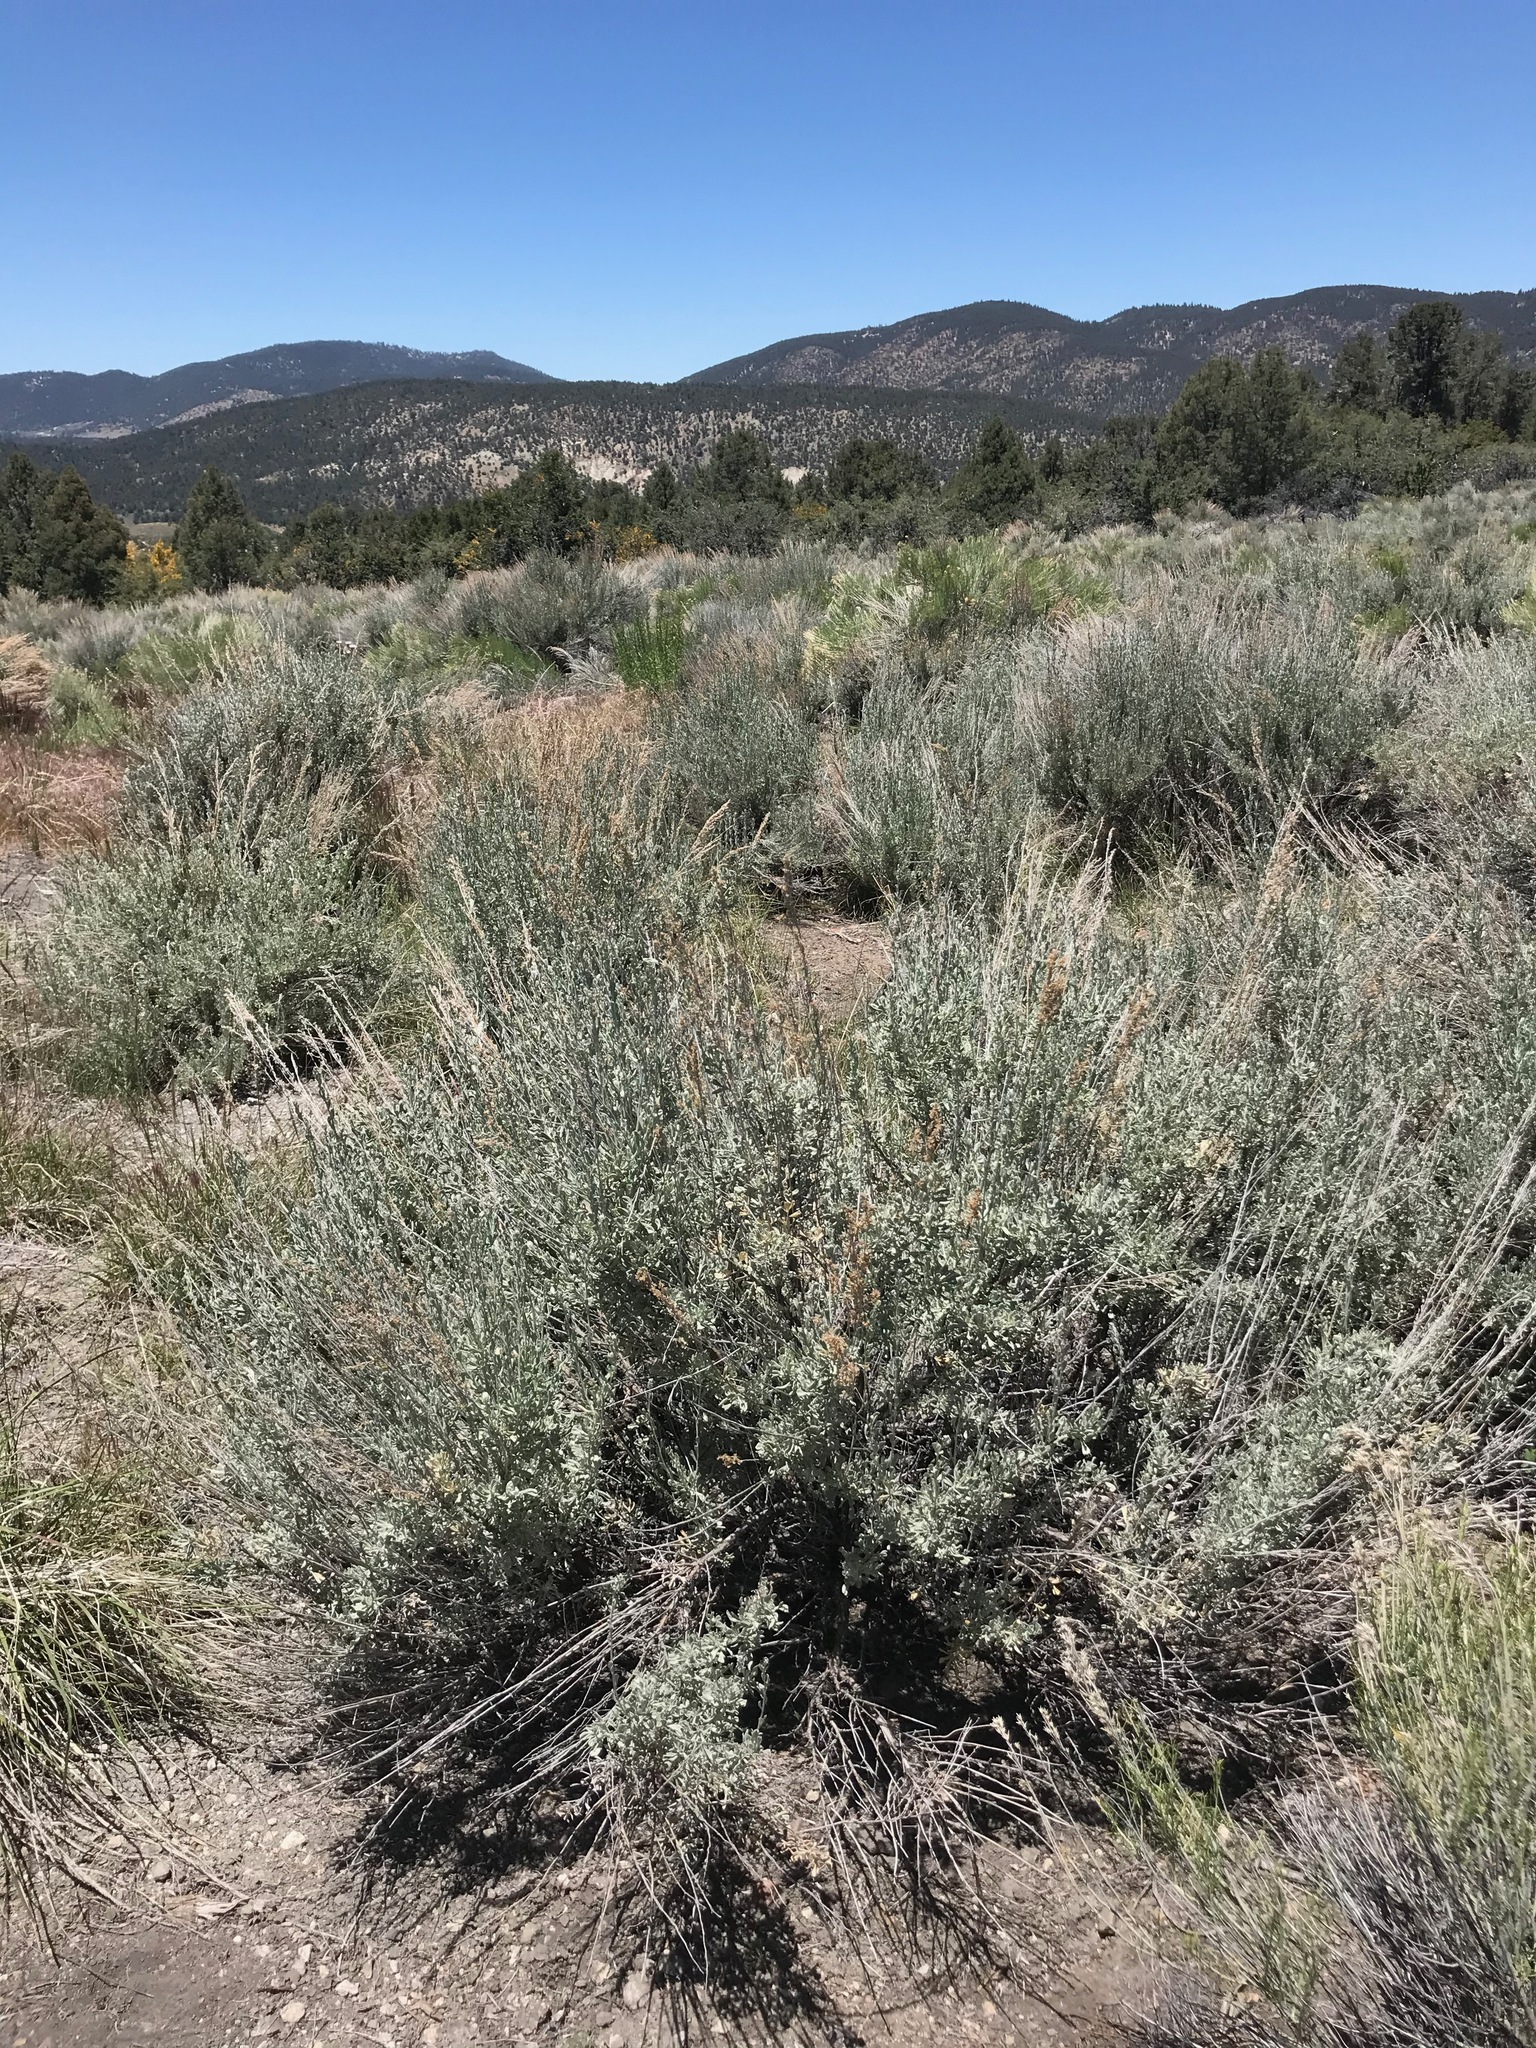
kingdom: Plantae
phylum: Tracheophyta
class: Magnoliopsida
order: Asterales
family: Asteraceae
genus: Artemisia
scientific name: Artemisia tridentata
